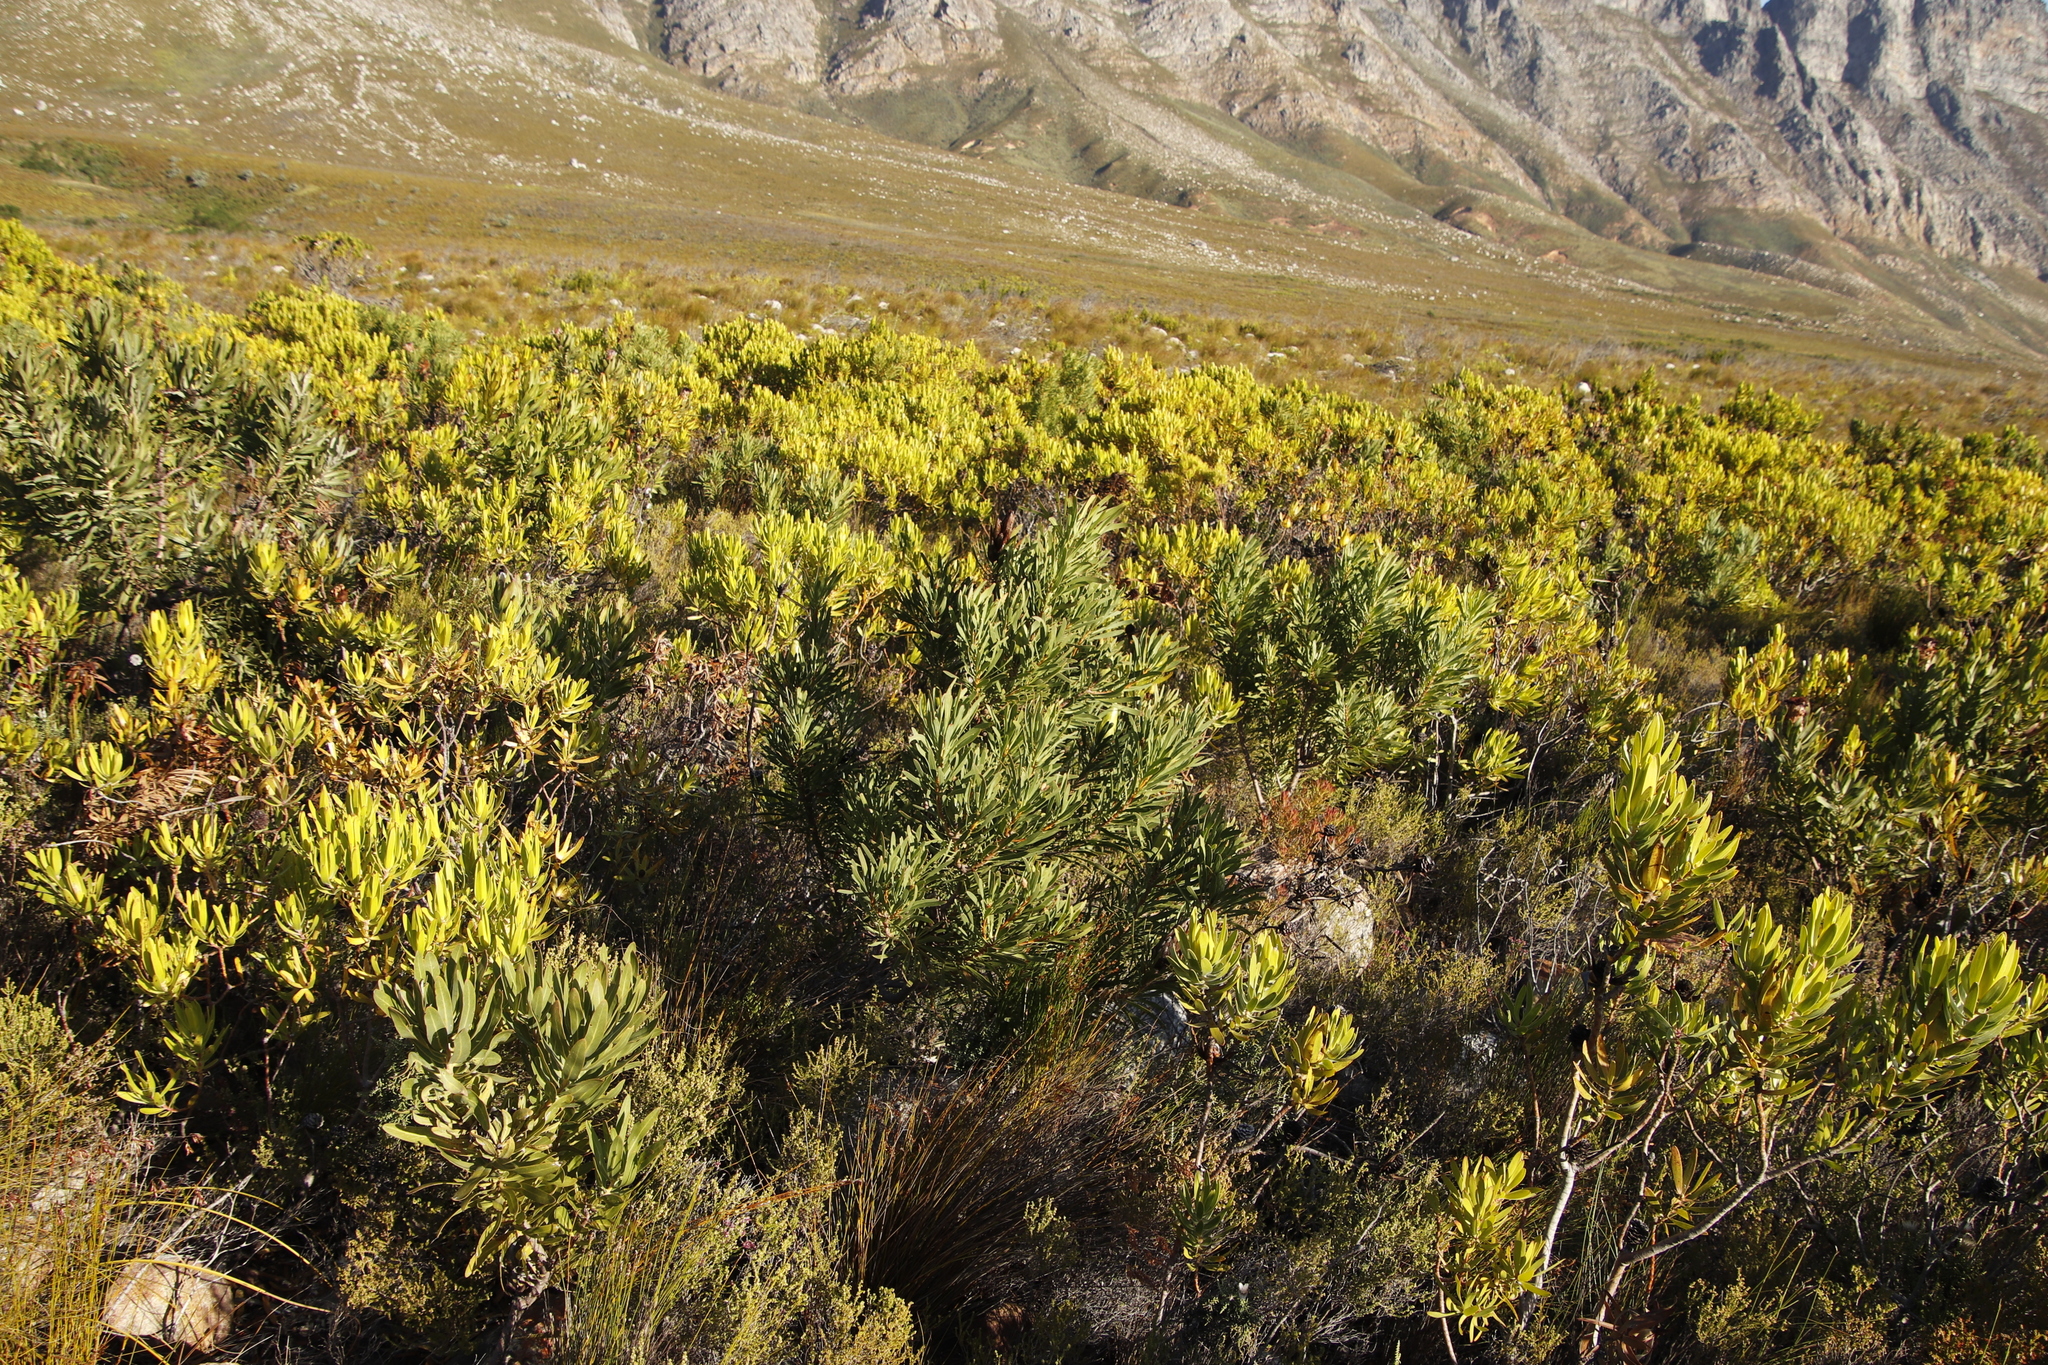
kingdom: Plantae
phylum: Tracheophyta
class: Magnoliopsida
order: Proteales
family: Proteaceae
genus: Protea
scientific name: Protea repens
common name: Sugarbush
